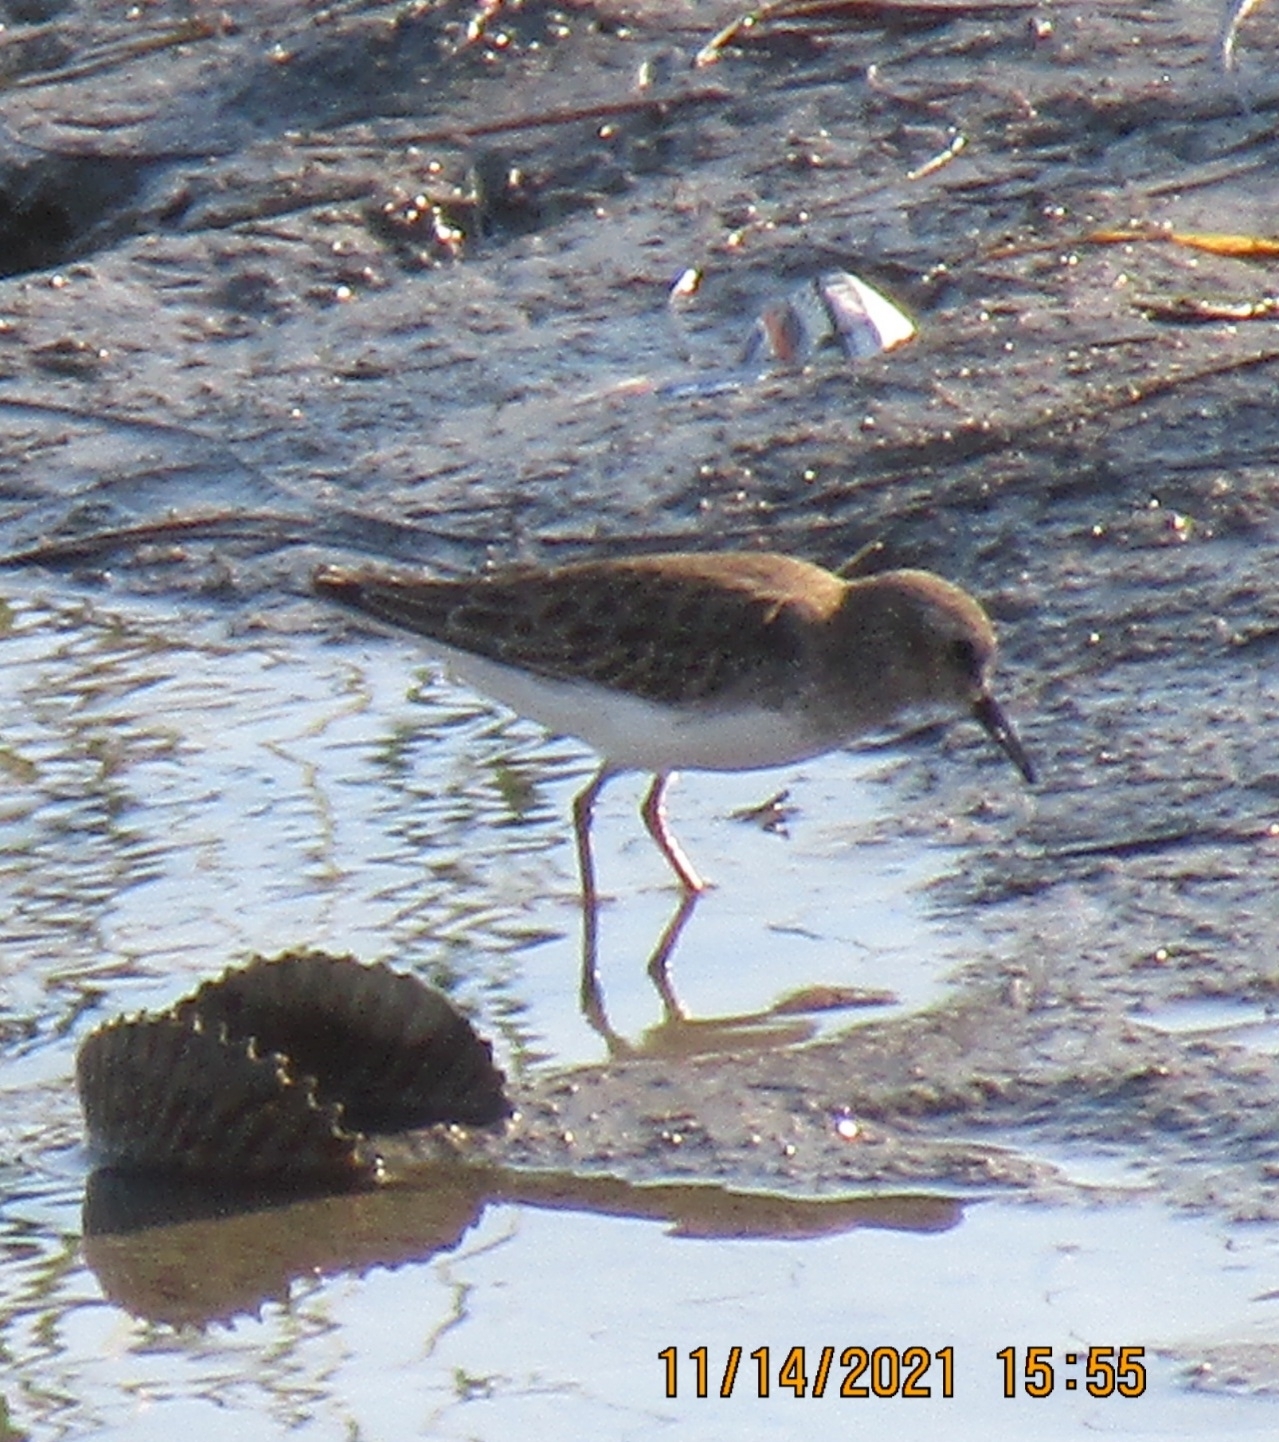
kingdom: Animalia
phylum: Chordata
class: Aves
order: Charadriiformes
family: Scolopacidae
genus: Calidris
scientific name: Calidris minutilla
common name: Least sandpiper
